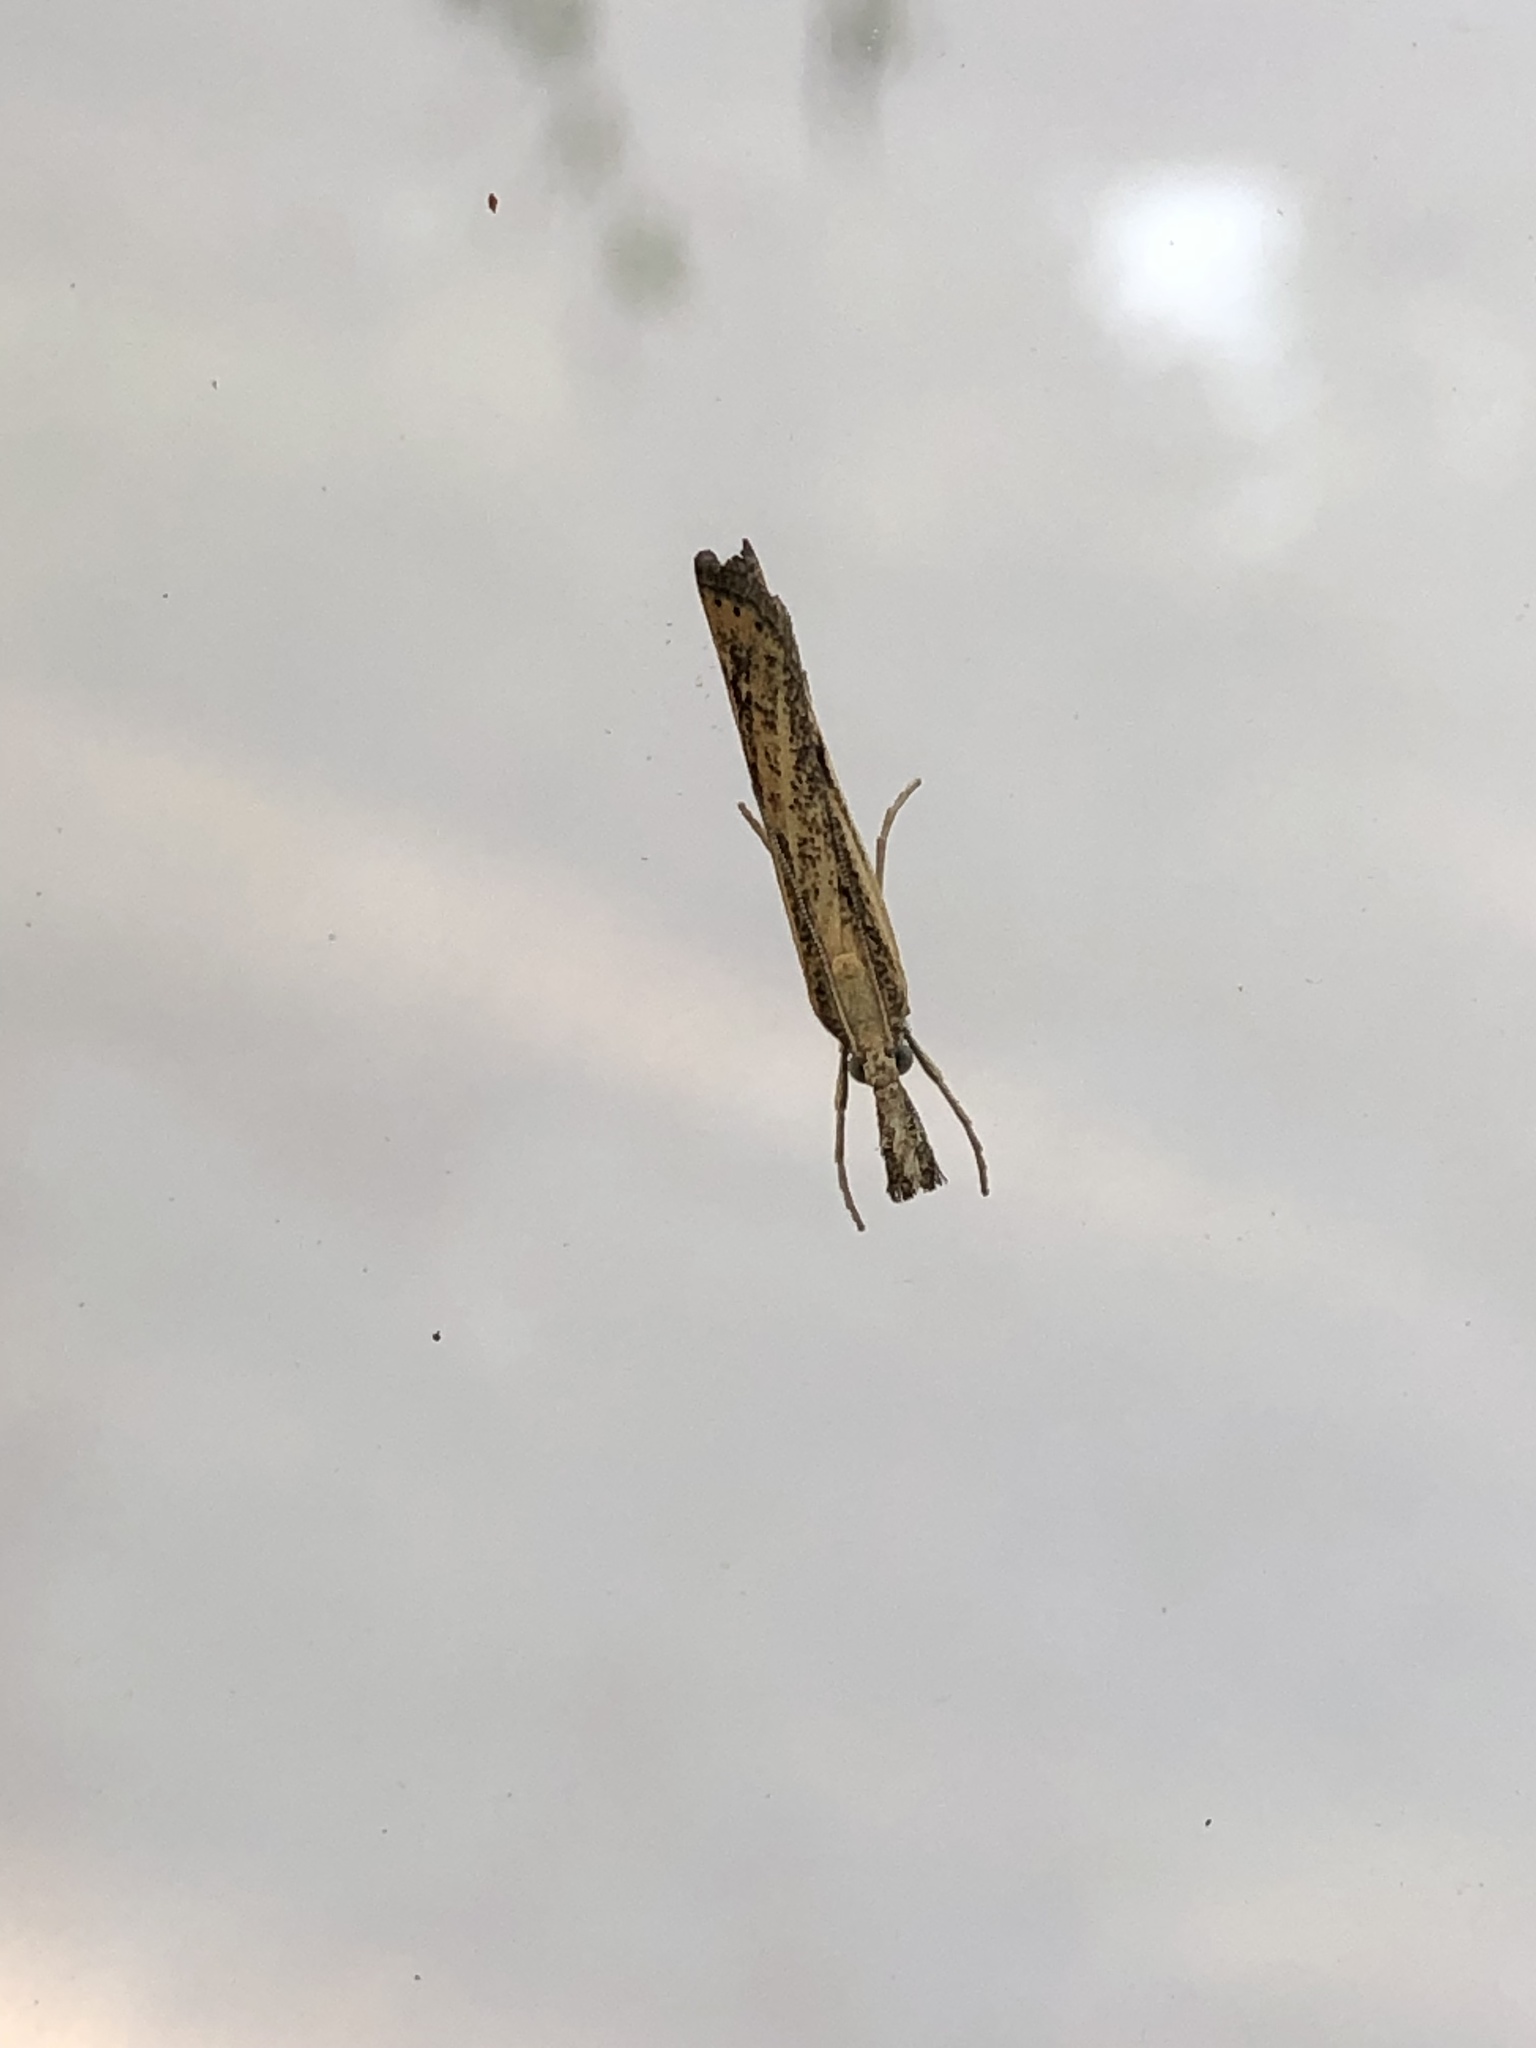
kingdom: Animalia
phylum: Arthropoda
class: Insecta
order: Lepidoptera
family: Crambidae
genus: Agriphila
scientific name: Agriphila tristellus
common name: Common grass-veneer
